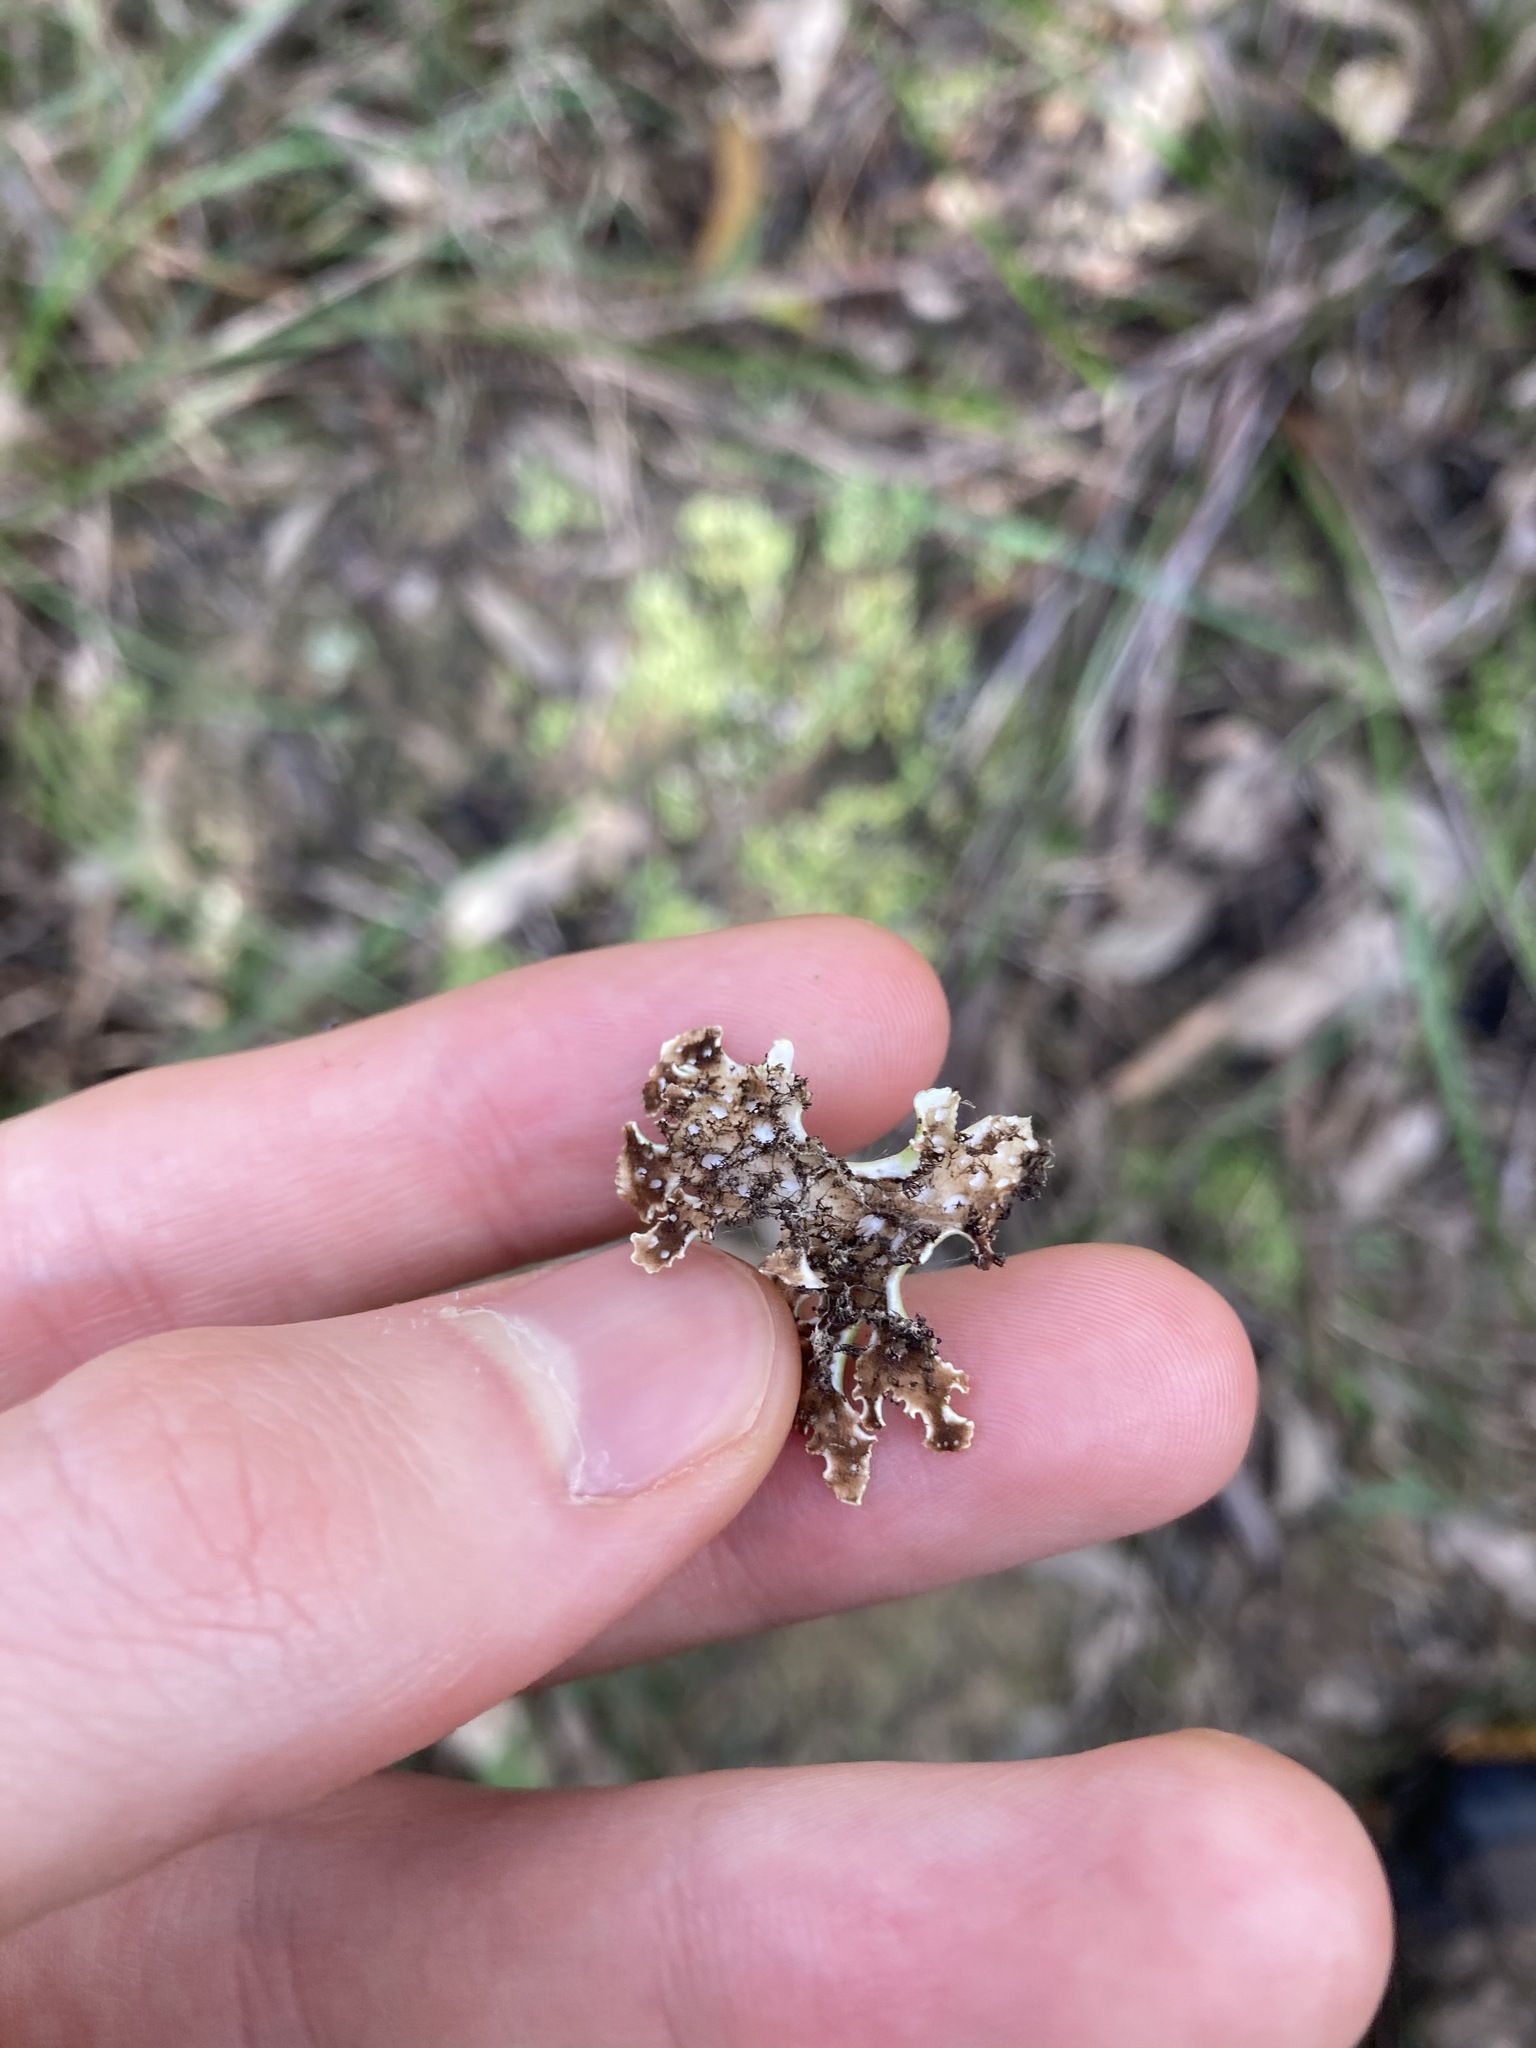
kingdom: Fungi
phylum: Ascomycota
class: Lecanoromycetes
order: Lecanorales
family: Cladoniaceae
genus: Cladia
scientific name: Cladia muelleri
